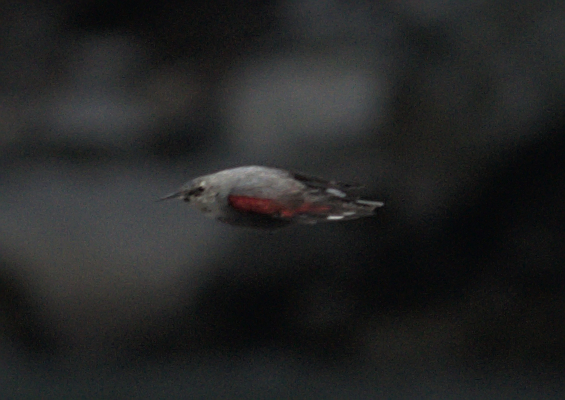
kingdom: Animalia
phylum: Chordata
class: Aves
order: Passeriformes
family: Tichodromidae
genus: Tichodroma
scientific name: Tichodroma muraria
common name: Wallcreeper
